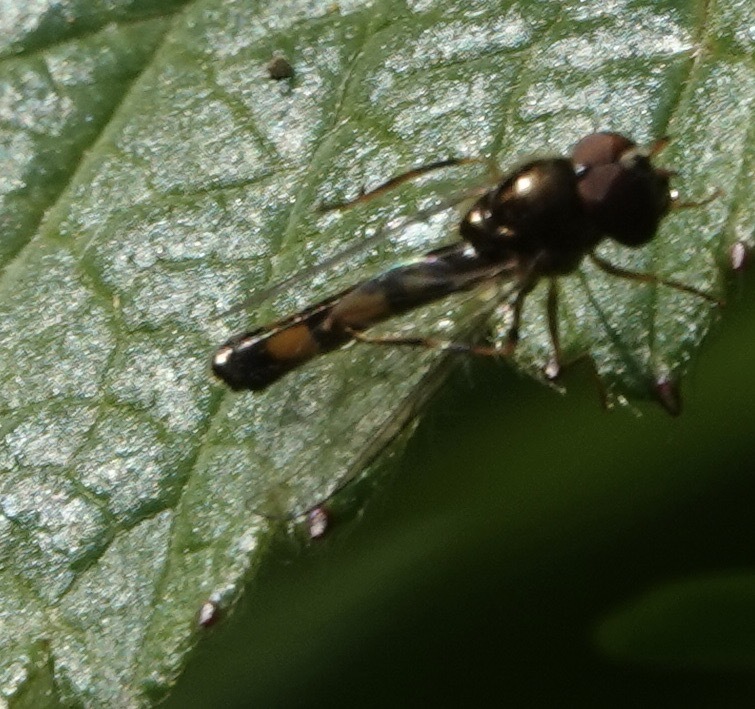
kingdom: Animalia
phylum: Arthropoda
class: Insecta
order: Diptera
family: Syrphidae
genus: Melanostoma
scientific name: Melanostoma scalare
